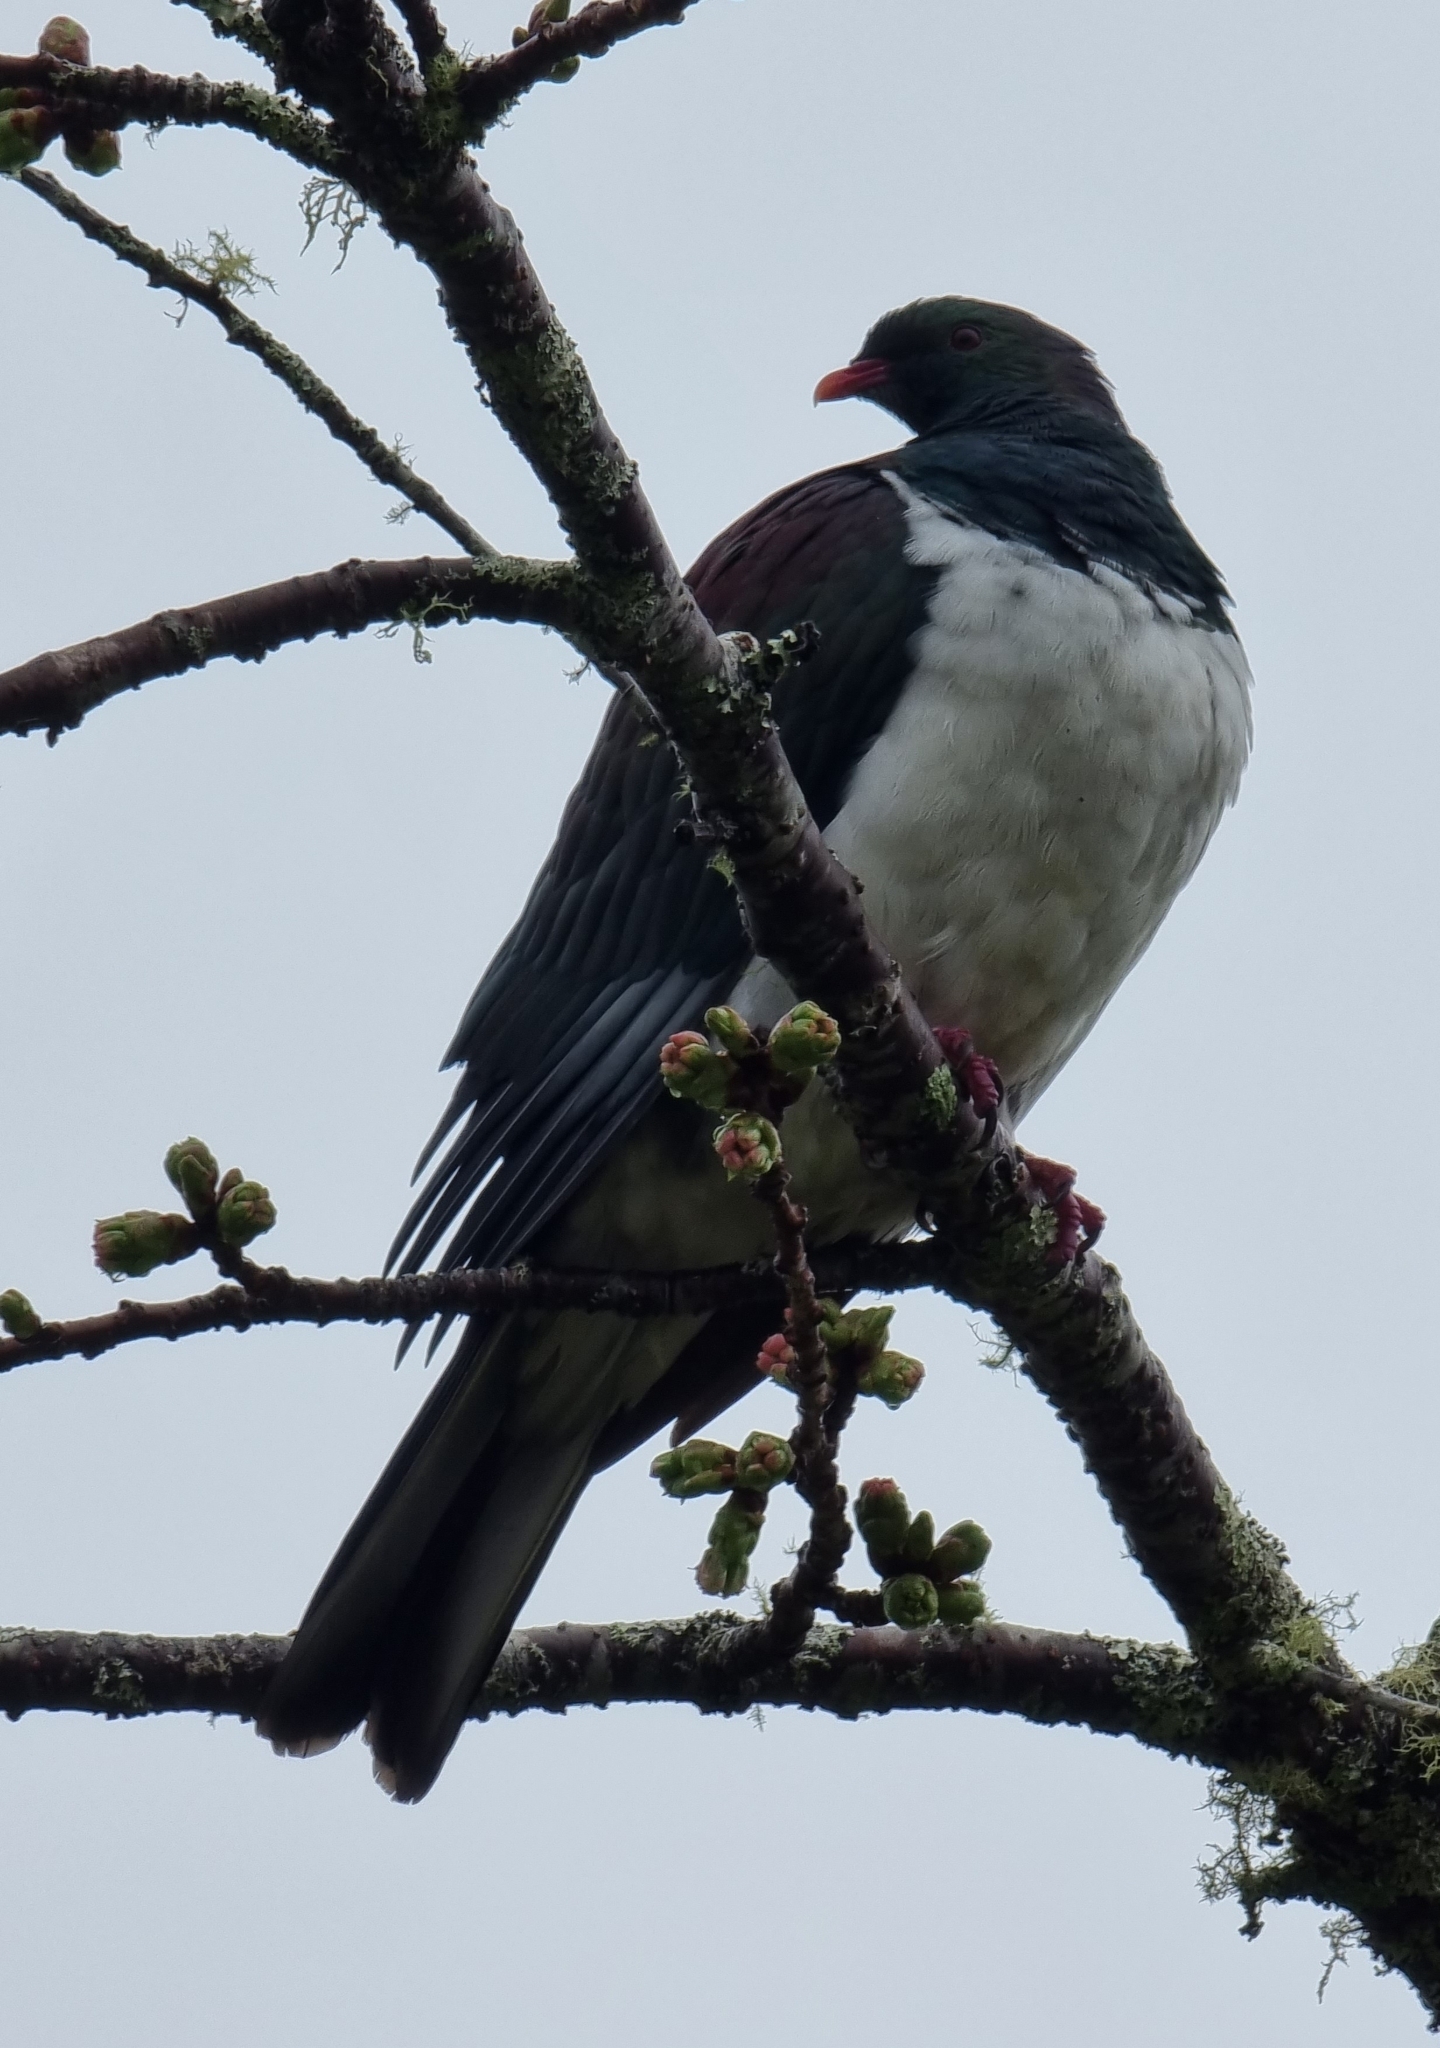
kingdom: Animalia
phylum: Chordata
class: Aves
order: Columbiformes
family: Columbidae
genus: Hemiphaga
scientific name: Hemiphaga novaeseelandiae
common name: New zealand pigeon
